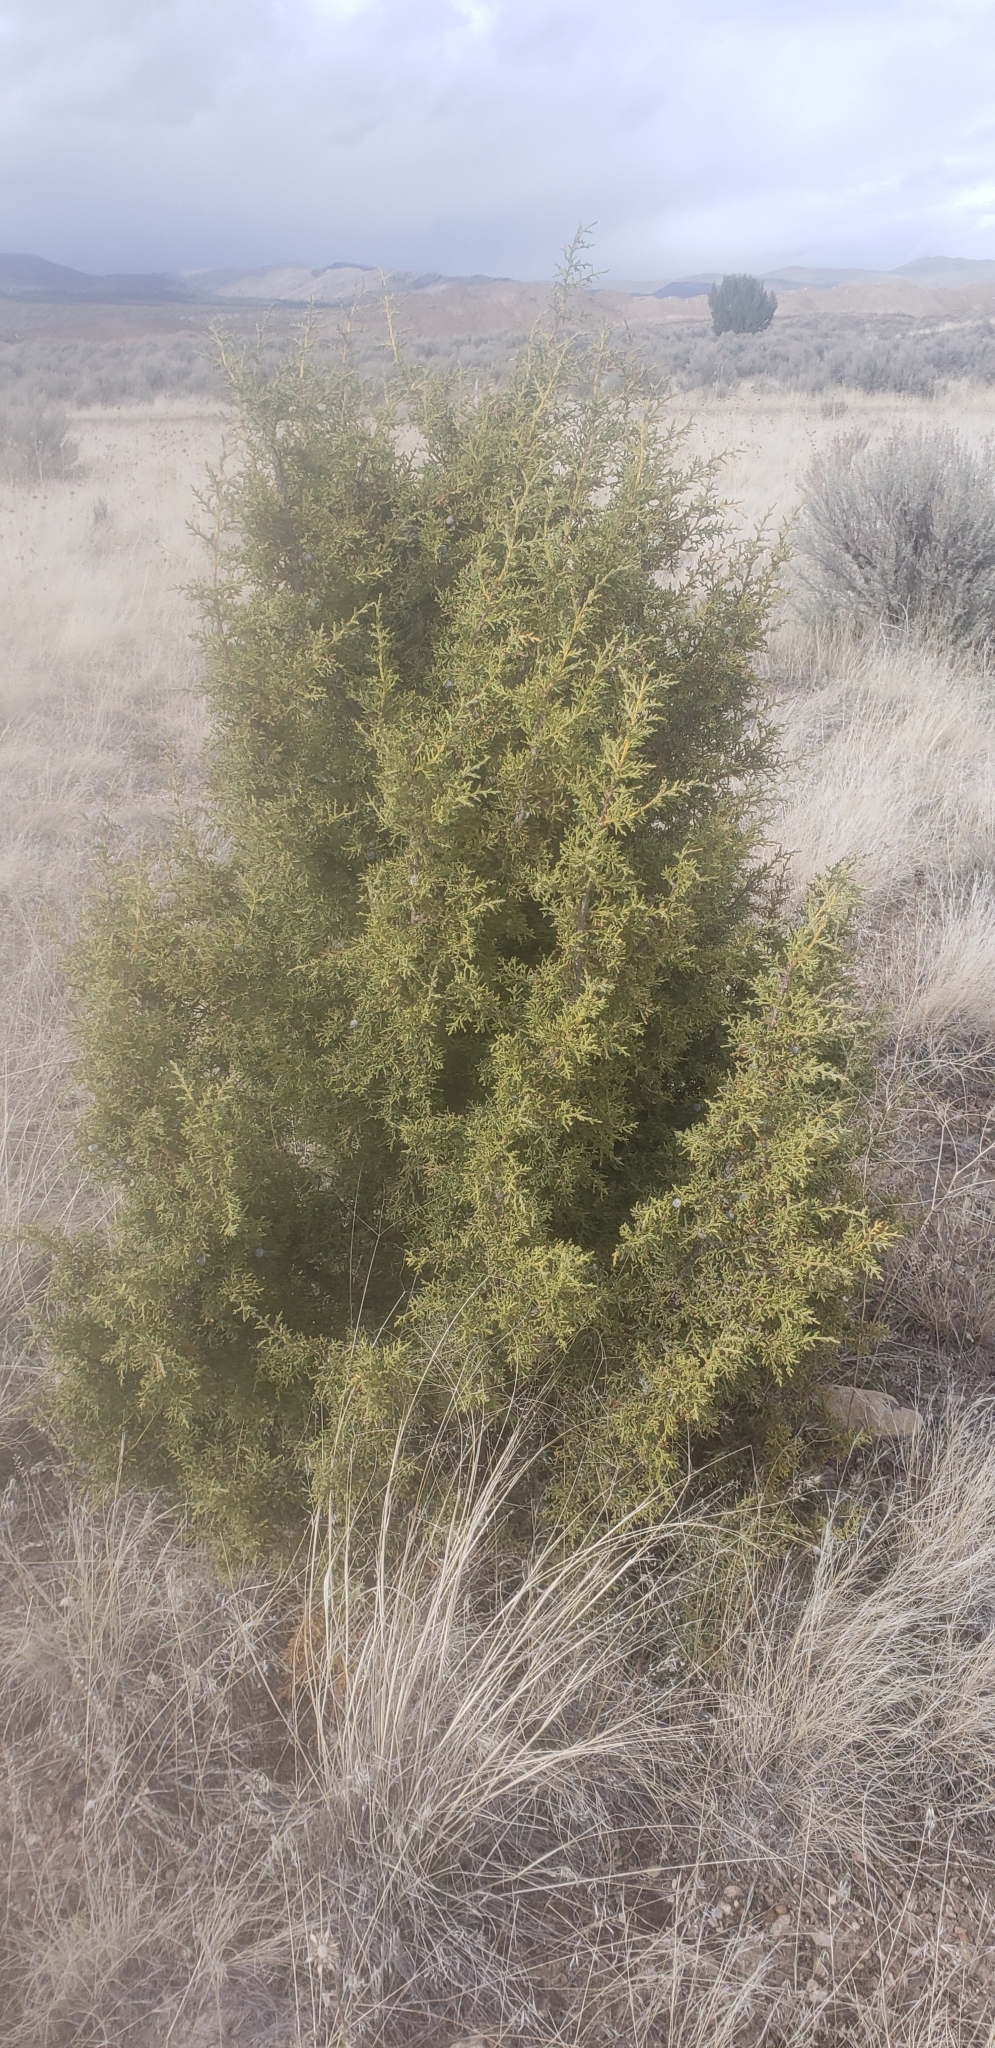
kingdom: Plantae
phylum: Tracheophyta
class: Pinopsida
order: Pinales
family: Cupressaceae
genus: Juniperus
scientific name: Juniperus osteosperma
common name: Utah juniper
